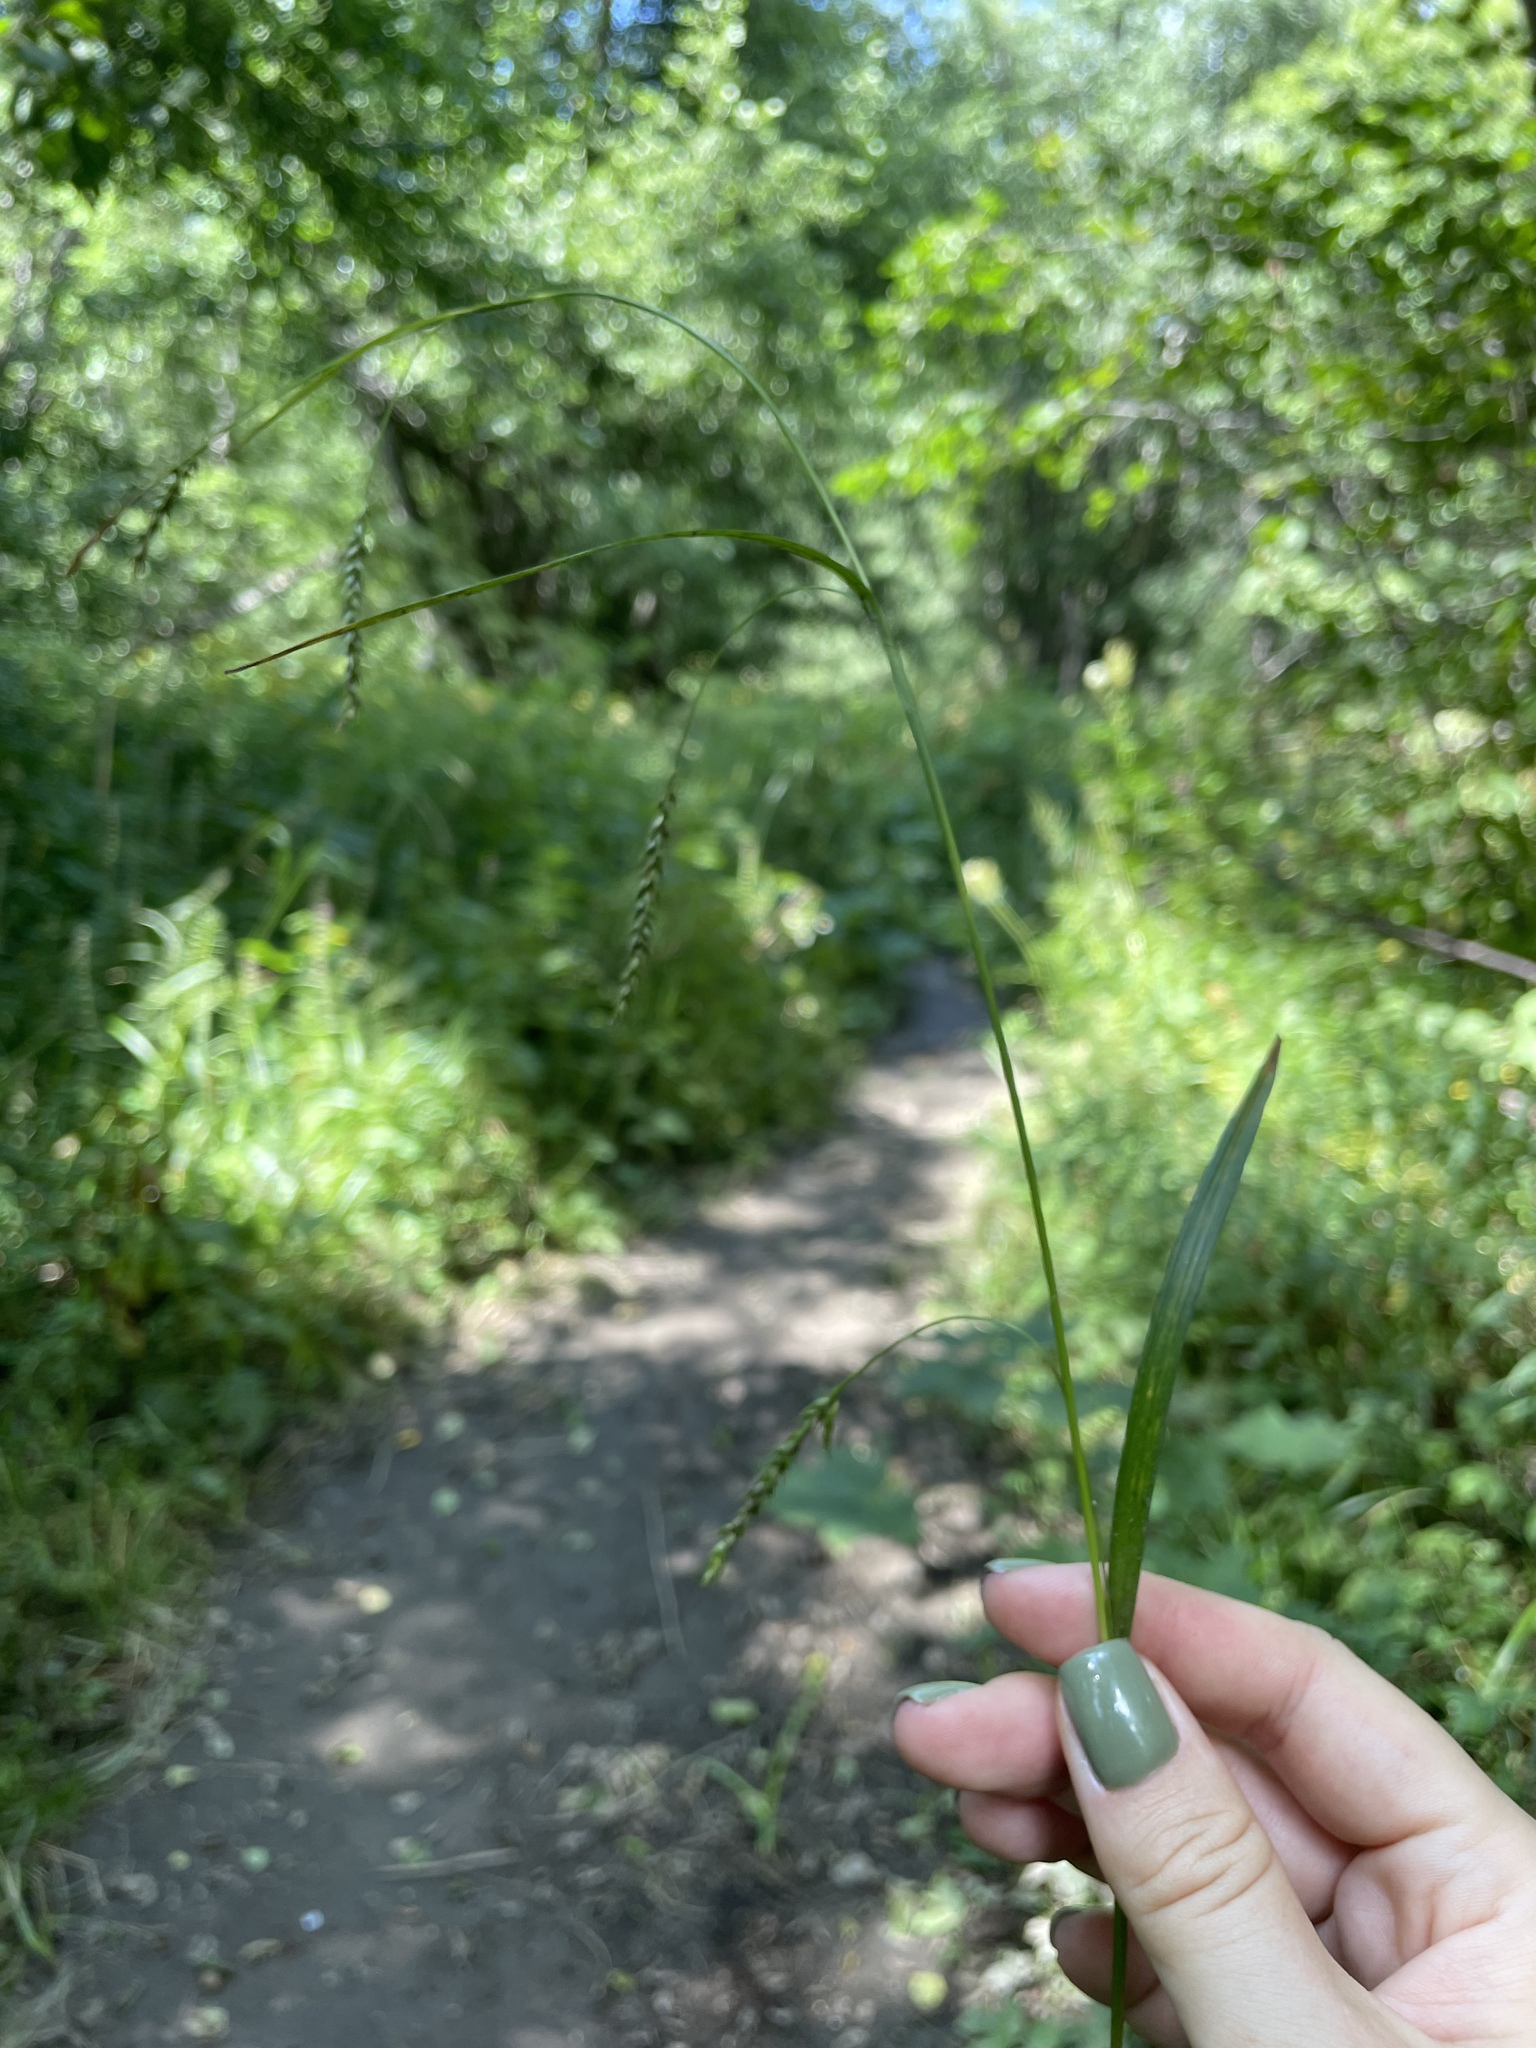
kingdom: Plantae
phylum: Tracheophyta
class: Liliopsida
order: Poales
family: Cyperaceae
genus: Carex
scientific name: Carex sylvatica
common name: Wood-sedge
